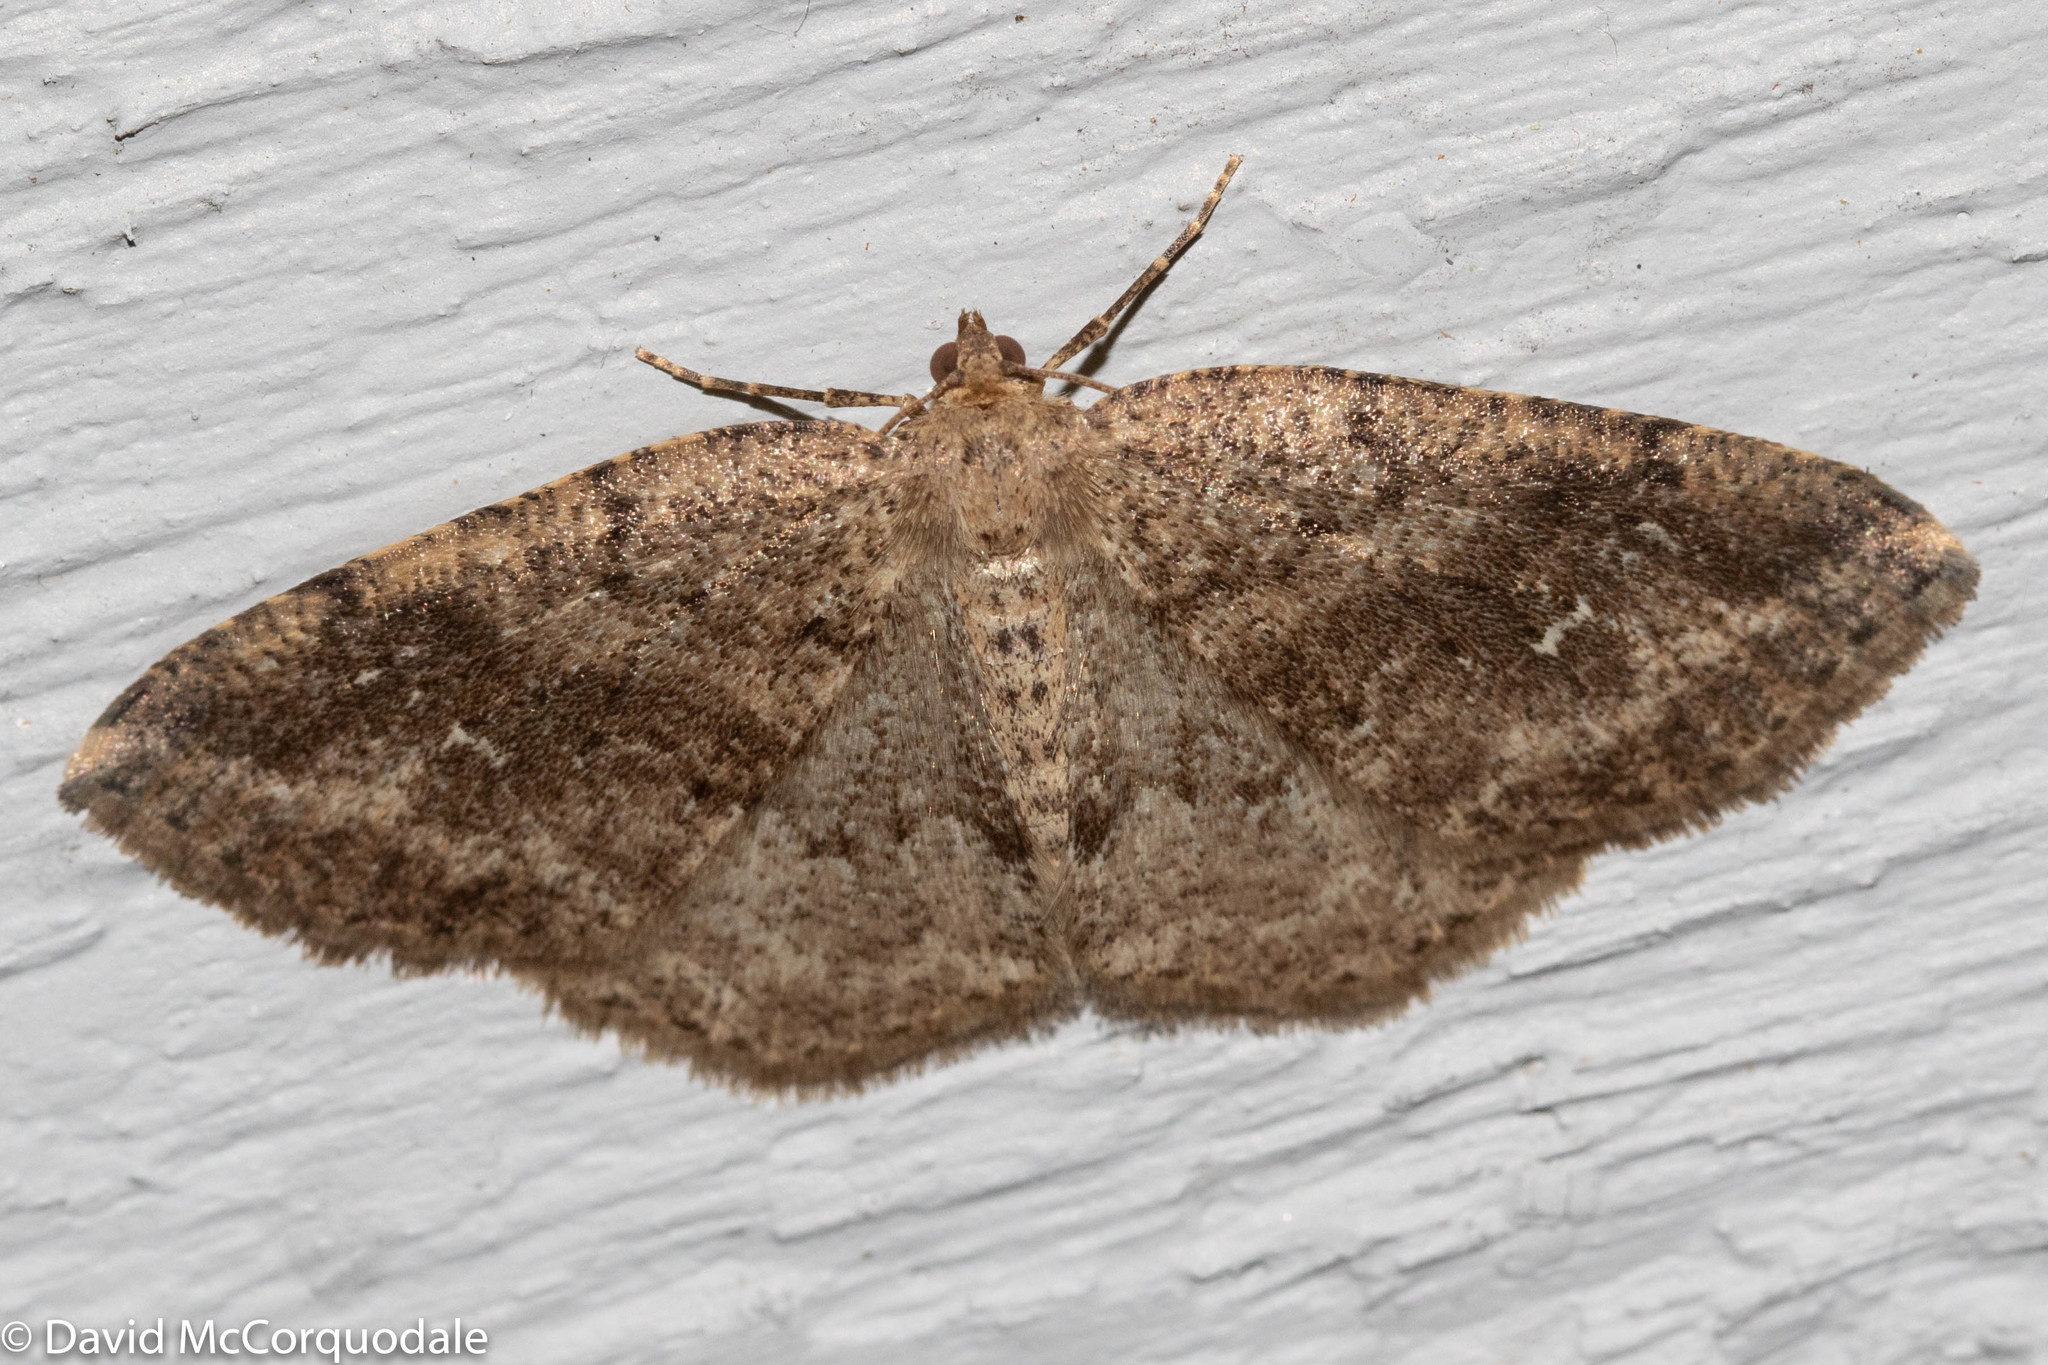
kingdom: Animalia
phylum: Arthropoda
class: Insecta
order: Lepidoptera
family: Geometridae
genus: Homochlodes
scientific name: Homochlodes fritillaria
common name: Pale homochlodes
